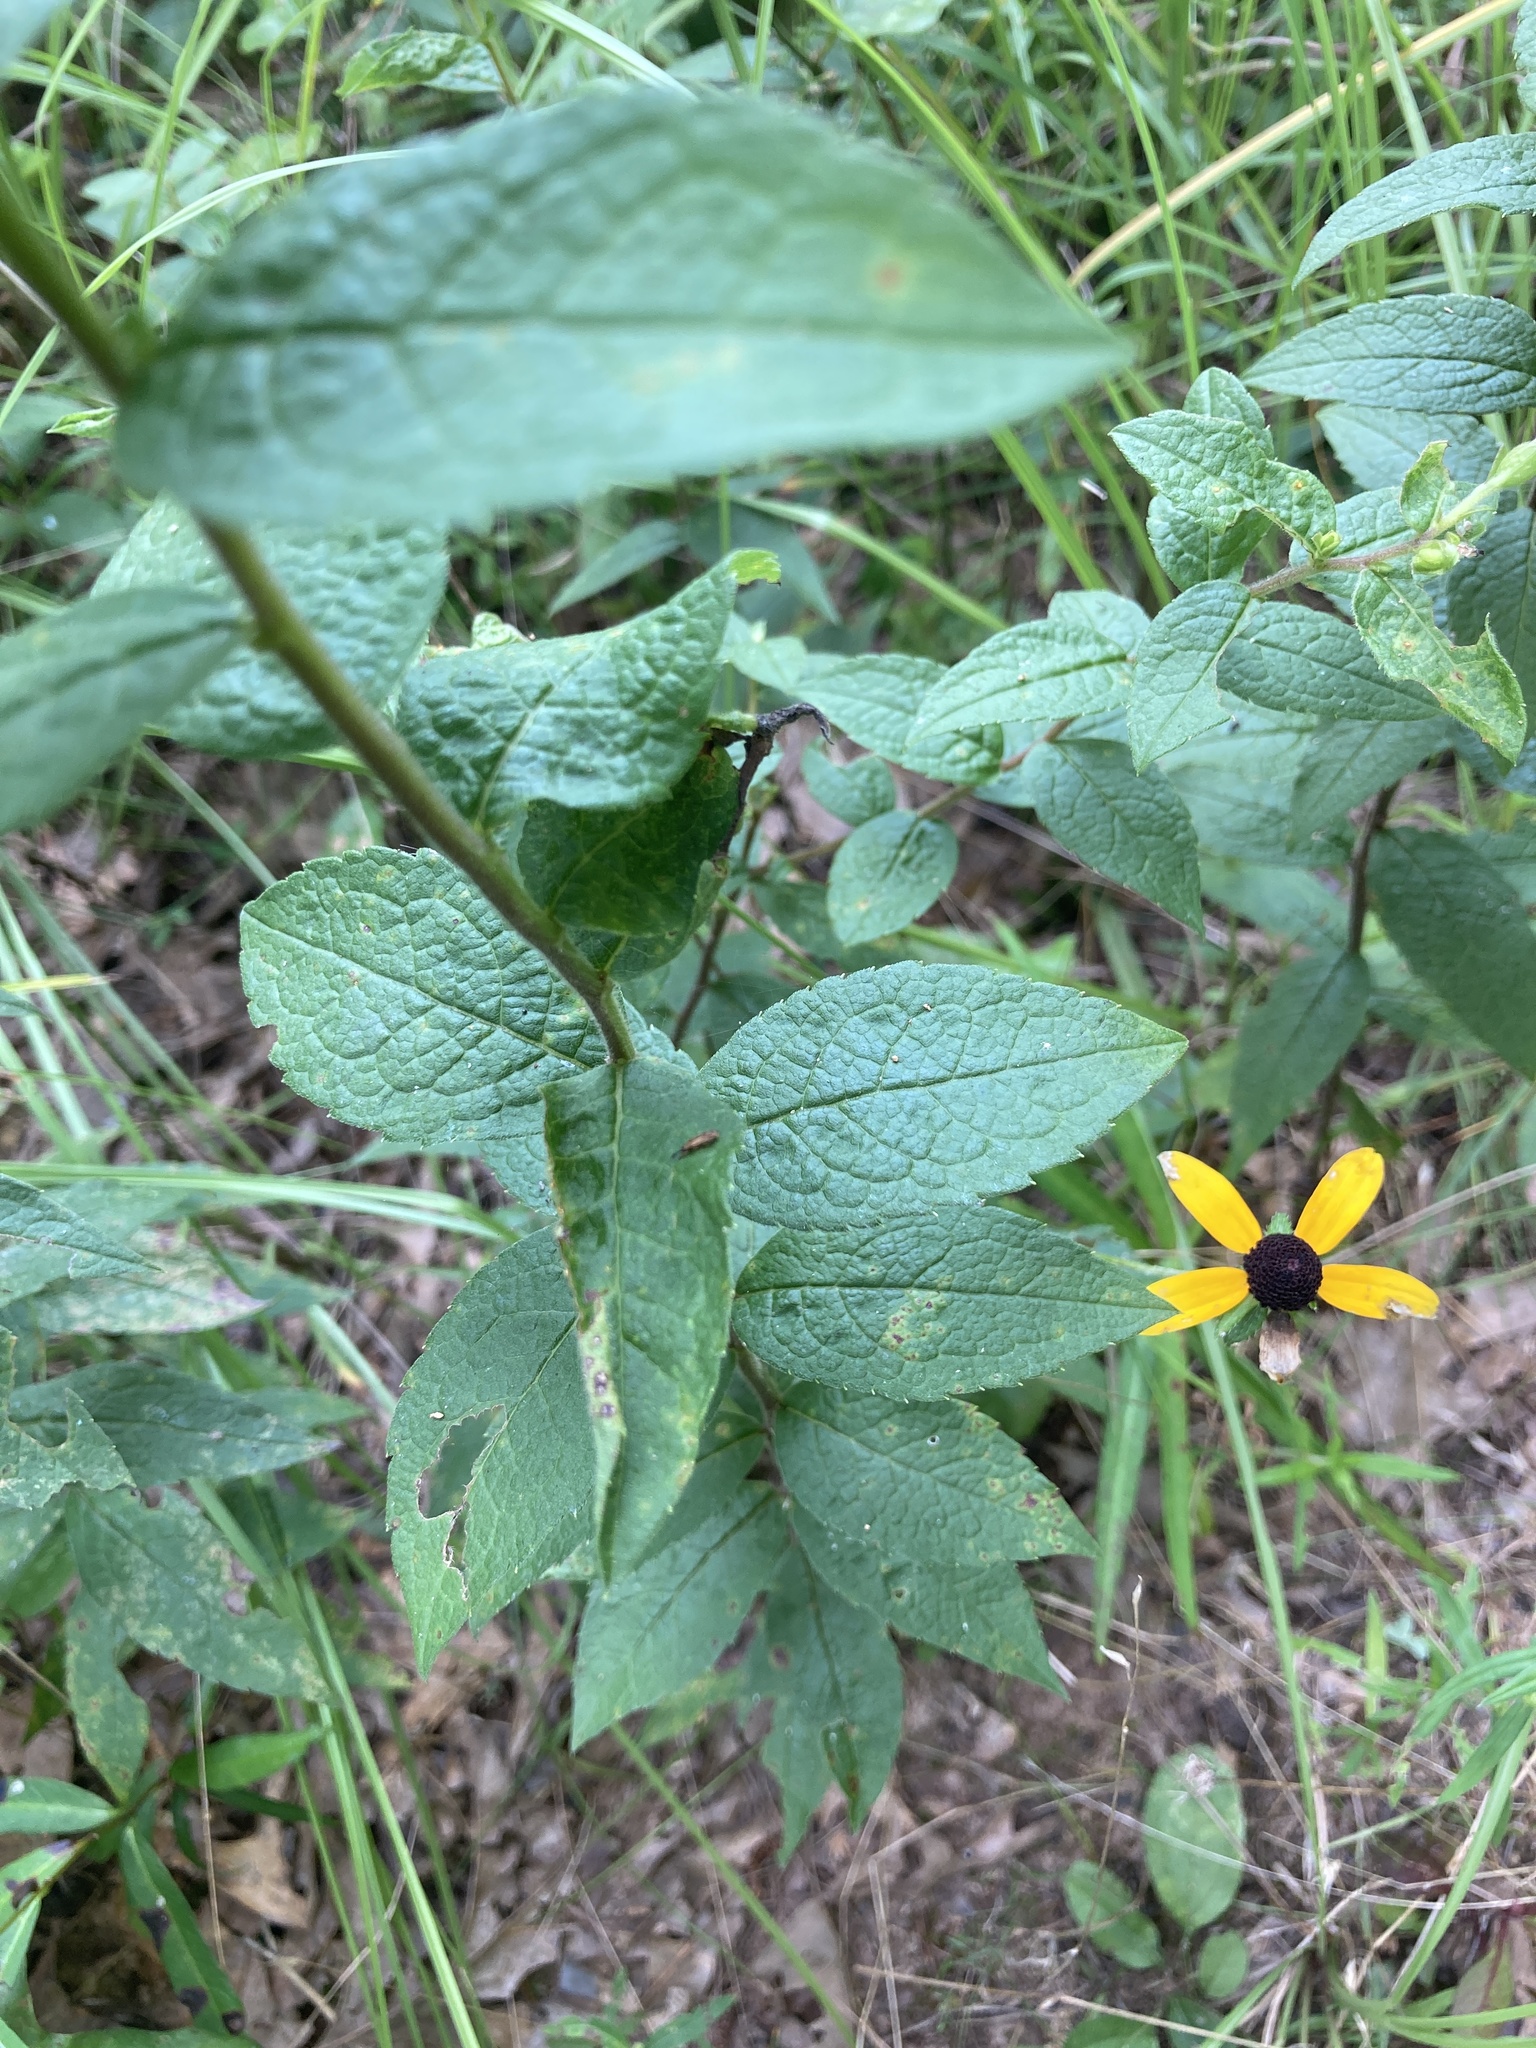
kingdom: Plantae
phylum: Tracheophyta
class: Magnoliopsida
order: Asterales
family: Asteraceae
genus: Solidago
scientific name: Solidago rugosa
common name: Rough-stemmed goldenrod
